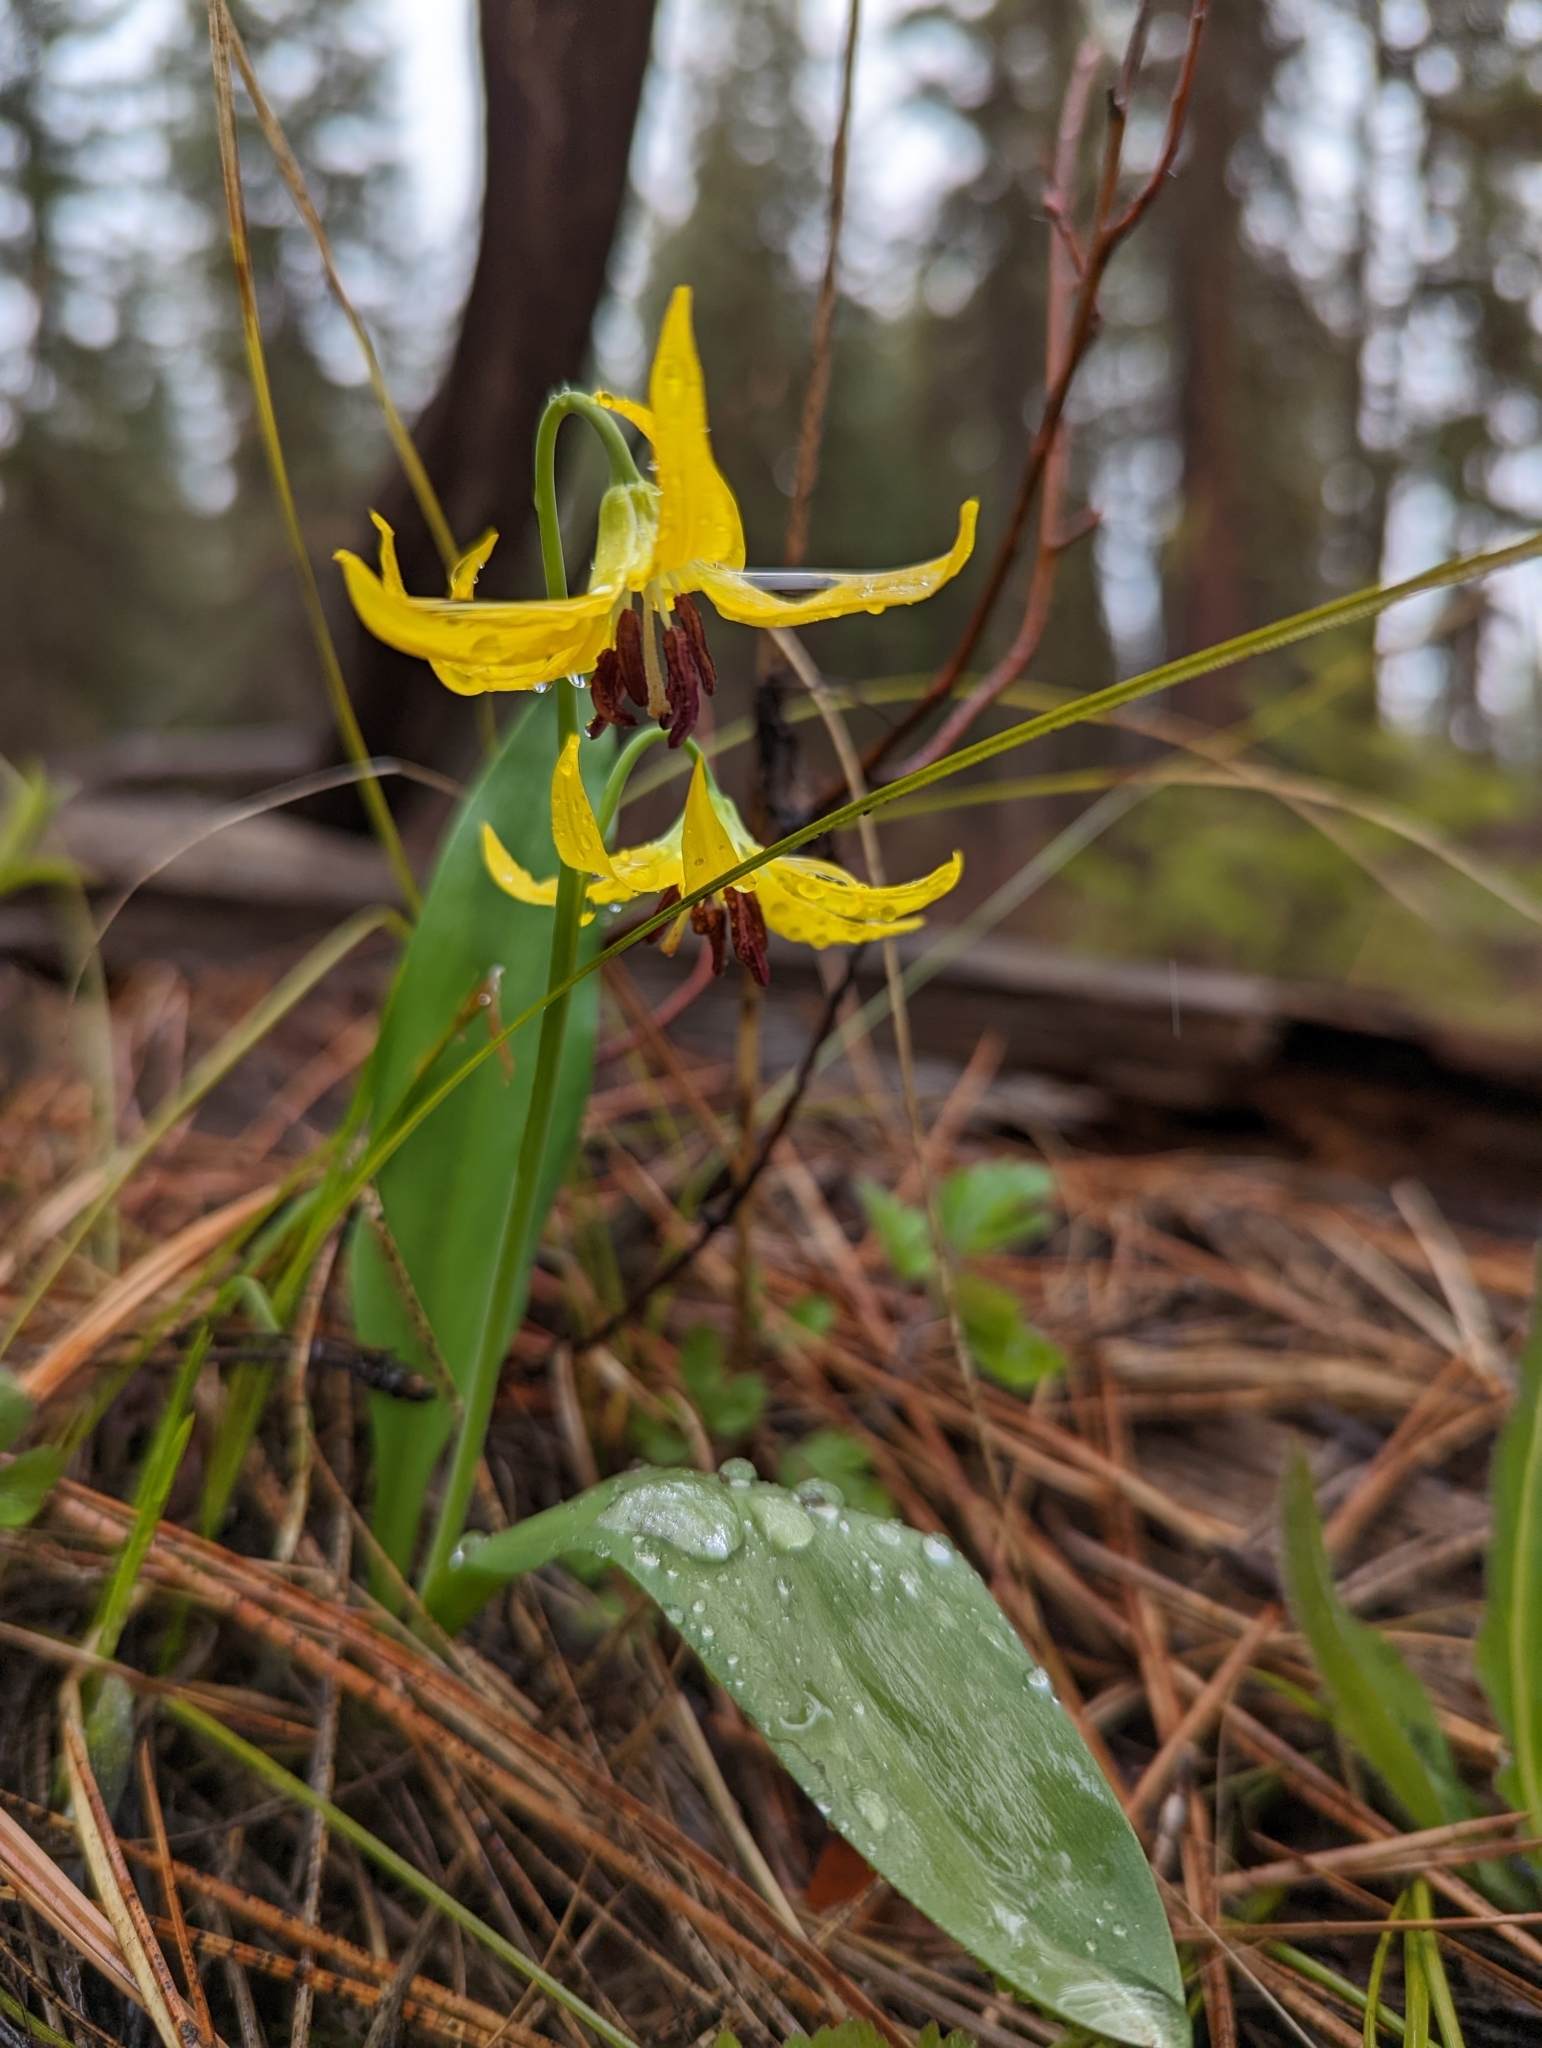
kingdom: Plantae
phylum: Tracheophyta
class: Liliopsida
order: Liliales
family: Liliaceae
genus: Erythronium
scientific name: Erythronium grandiflorum
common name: Avalanche-lily
